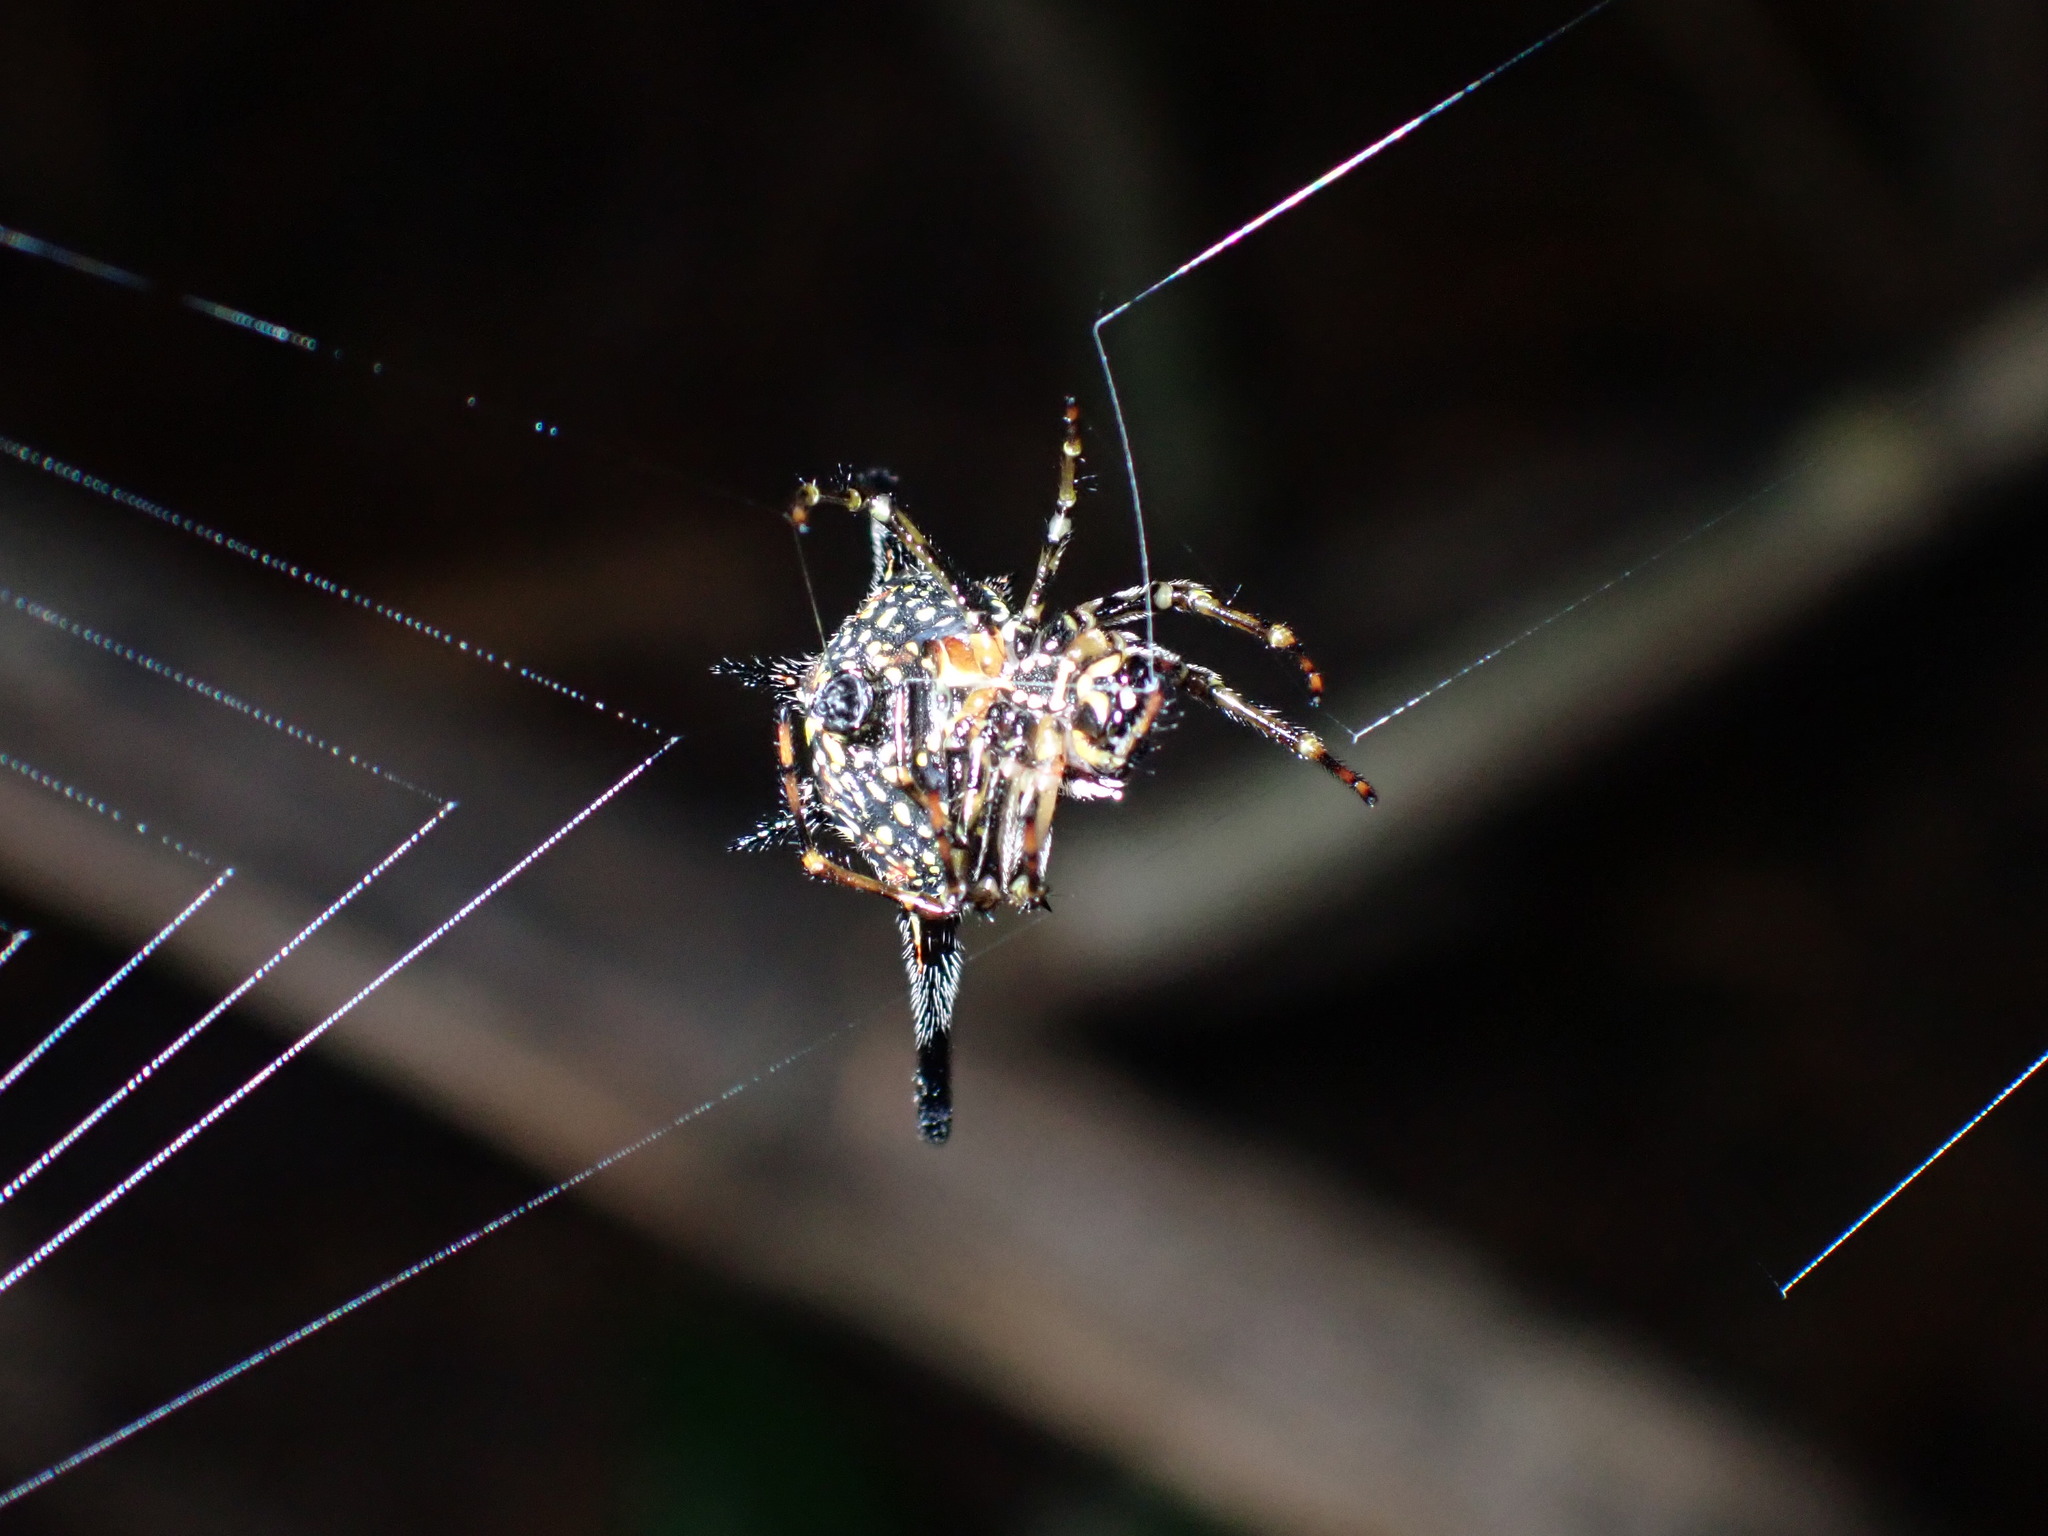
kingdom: Animalia
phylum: Arthropoda
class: Arachnida
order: Araneae
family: Araneidae
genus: Macracantha
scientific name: Macracantha hasselti
